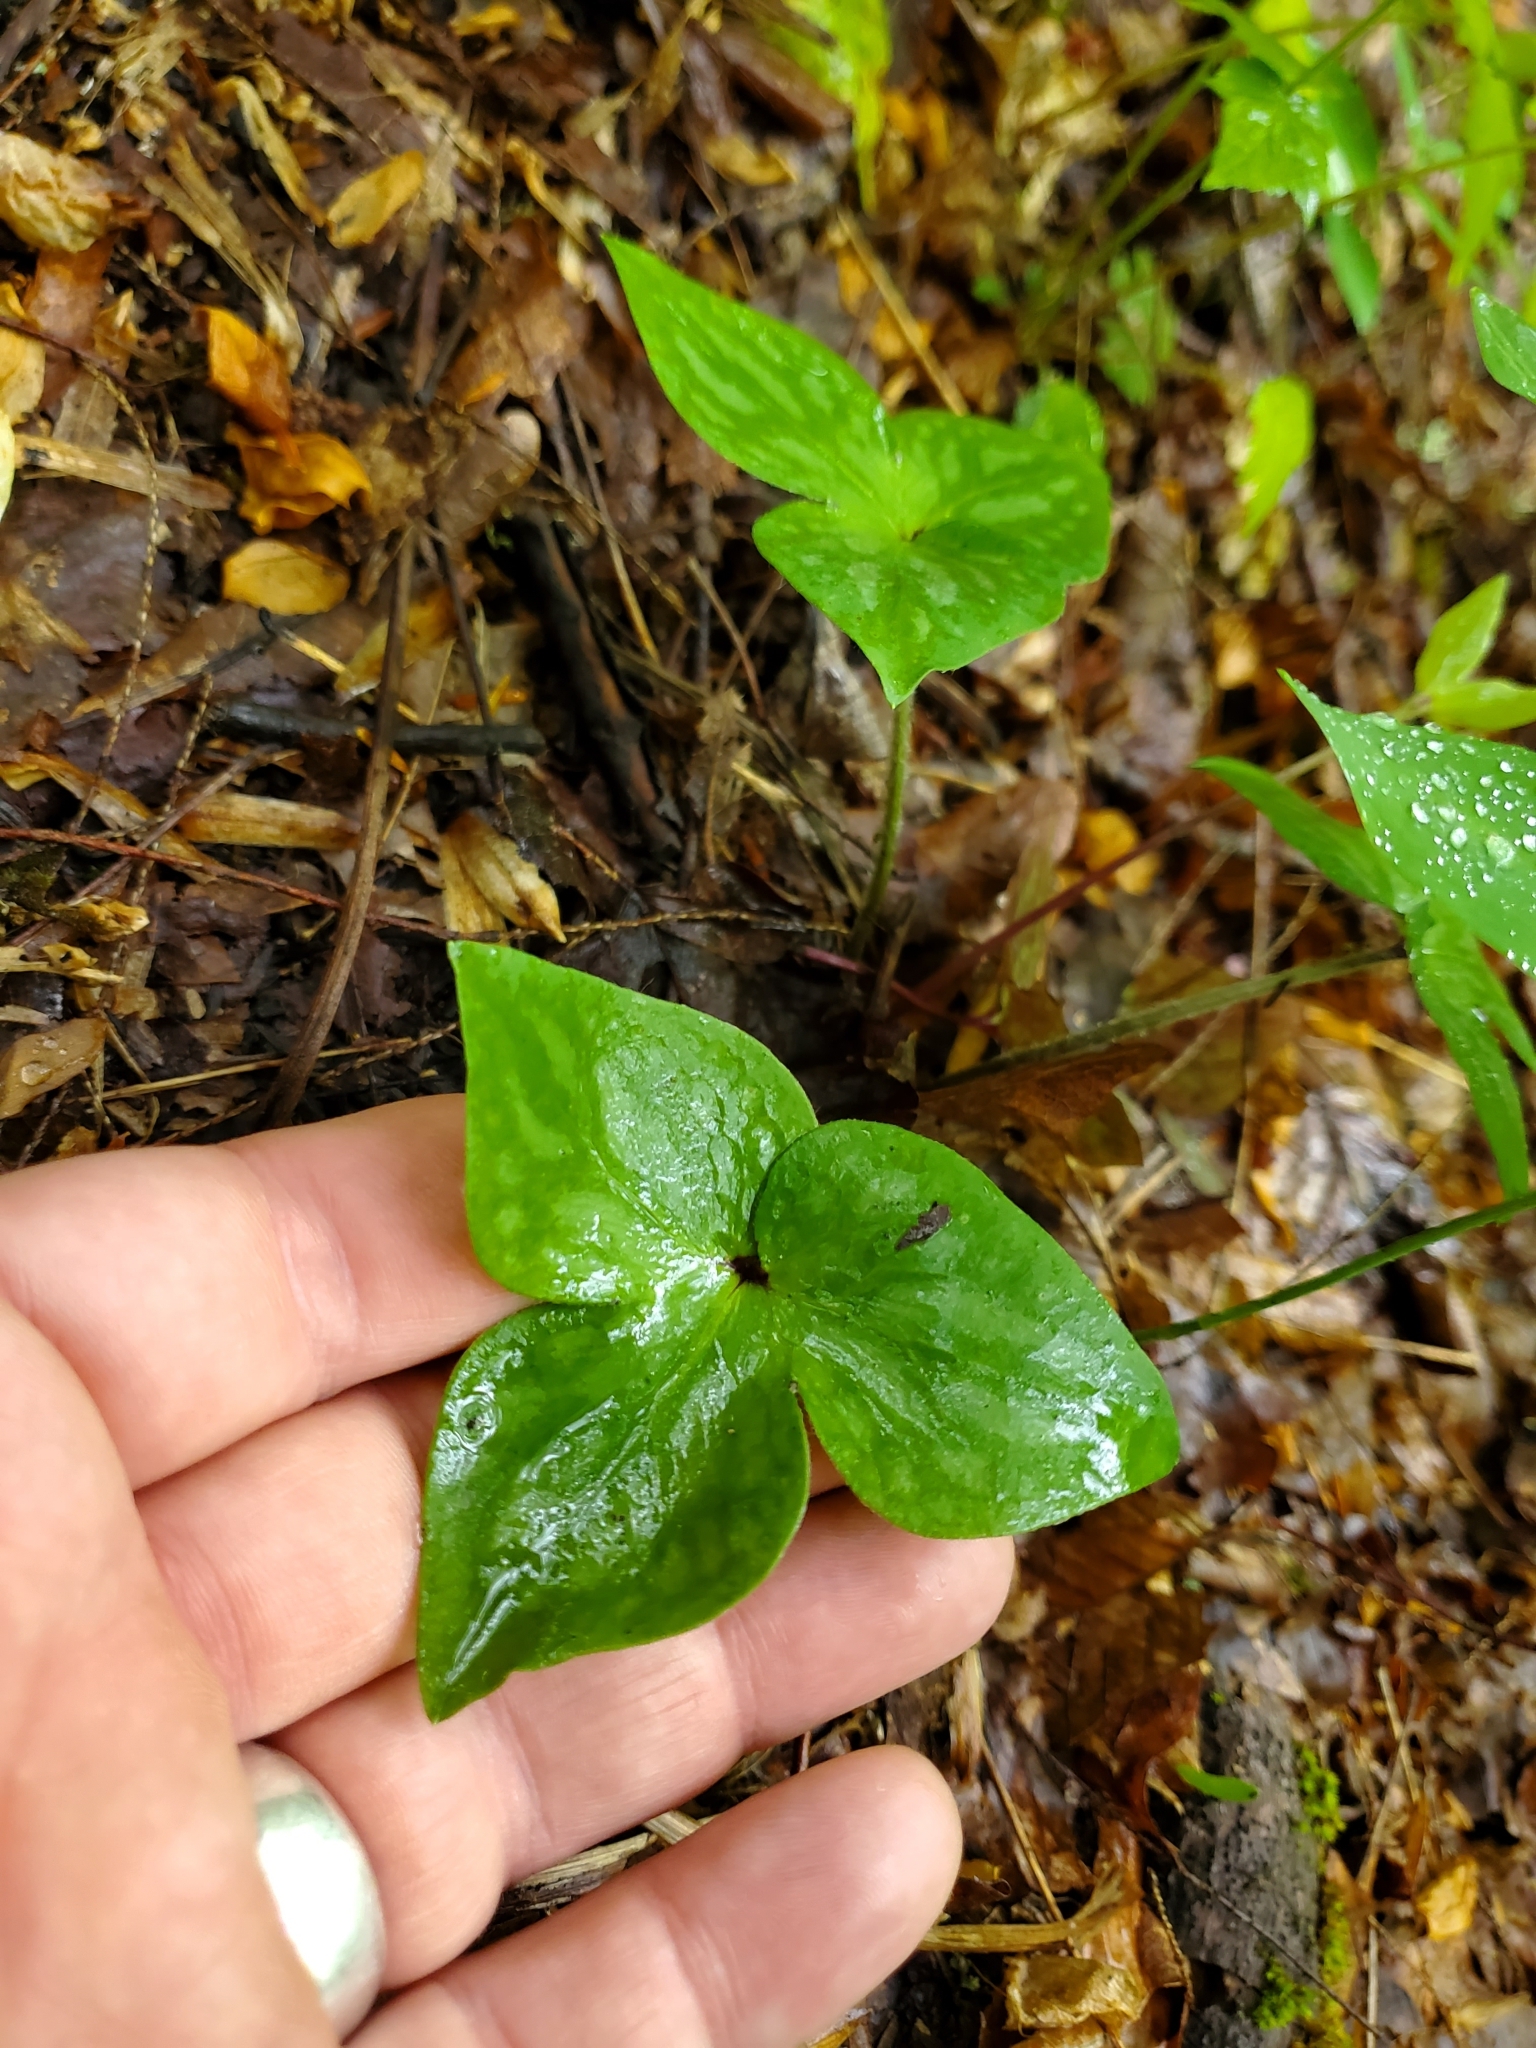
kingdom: Plantae
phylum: Tracheophyta
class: Magnoliopsida
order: Ranunculales
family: Ranunculaceae
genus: Hepatica
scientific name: Hepatica acutiloba
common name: Sharp-lobed hepatica
